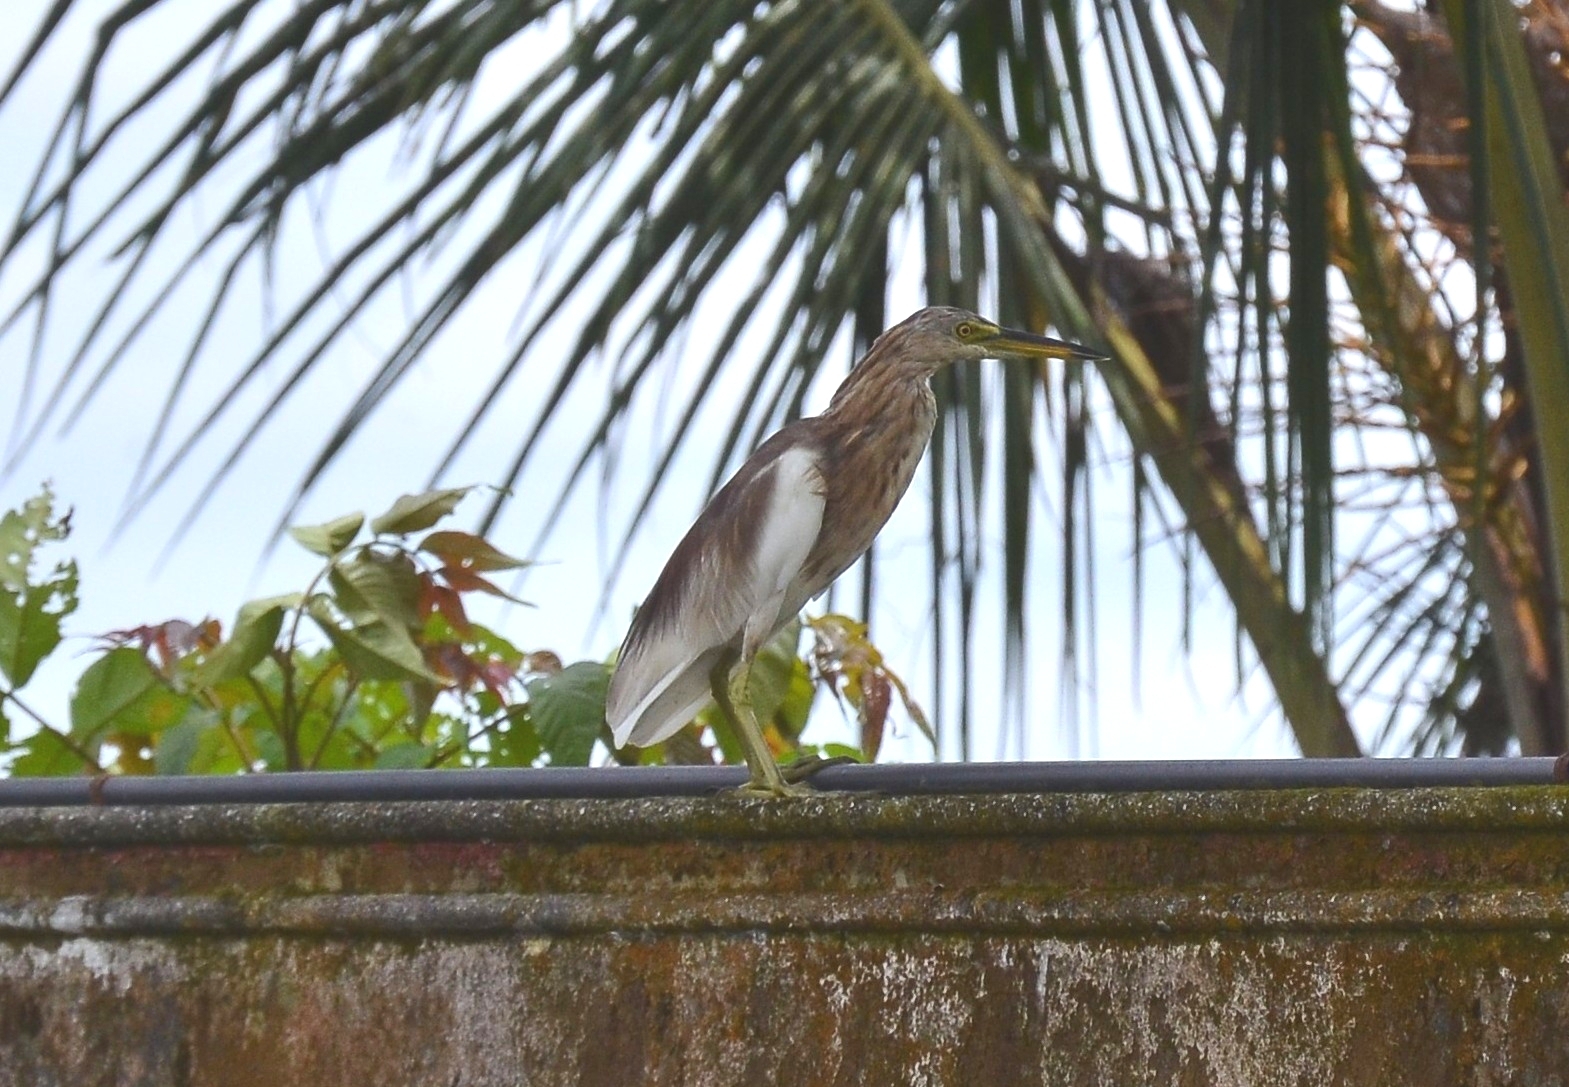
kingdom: Animalia
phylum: Chordata
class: Aves
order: Pelecaniformes
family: Ardeidae
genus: Ardeola
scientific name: Ardeola grayii
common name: Indian pond heron
